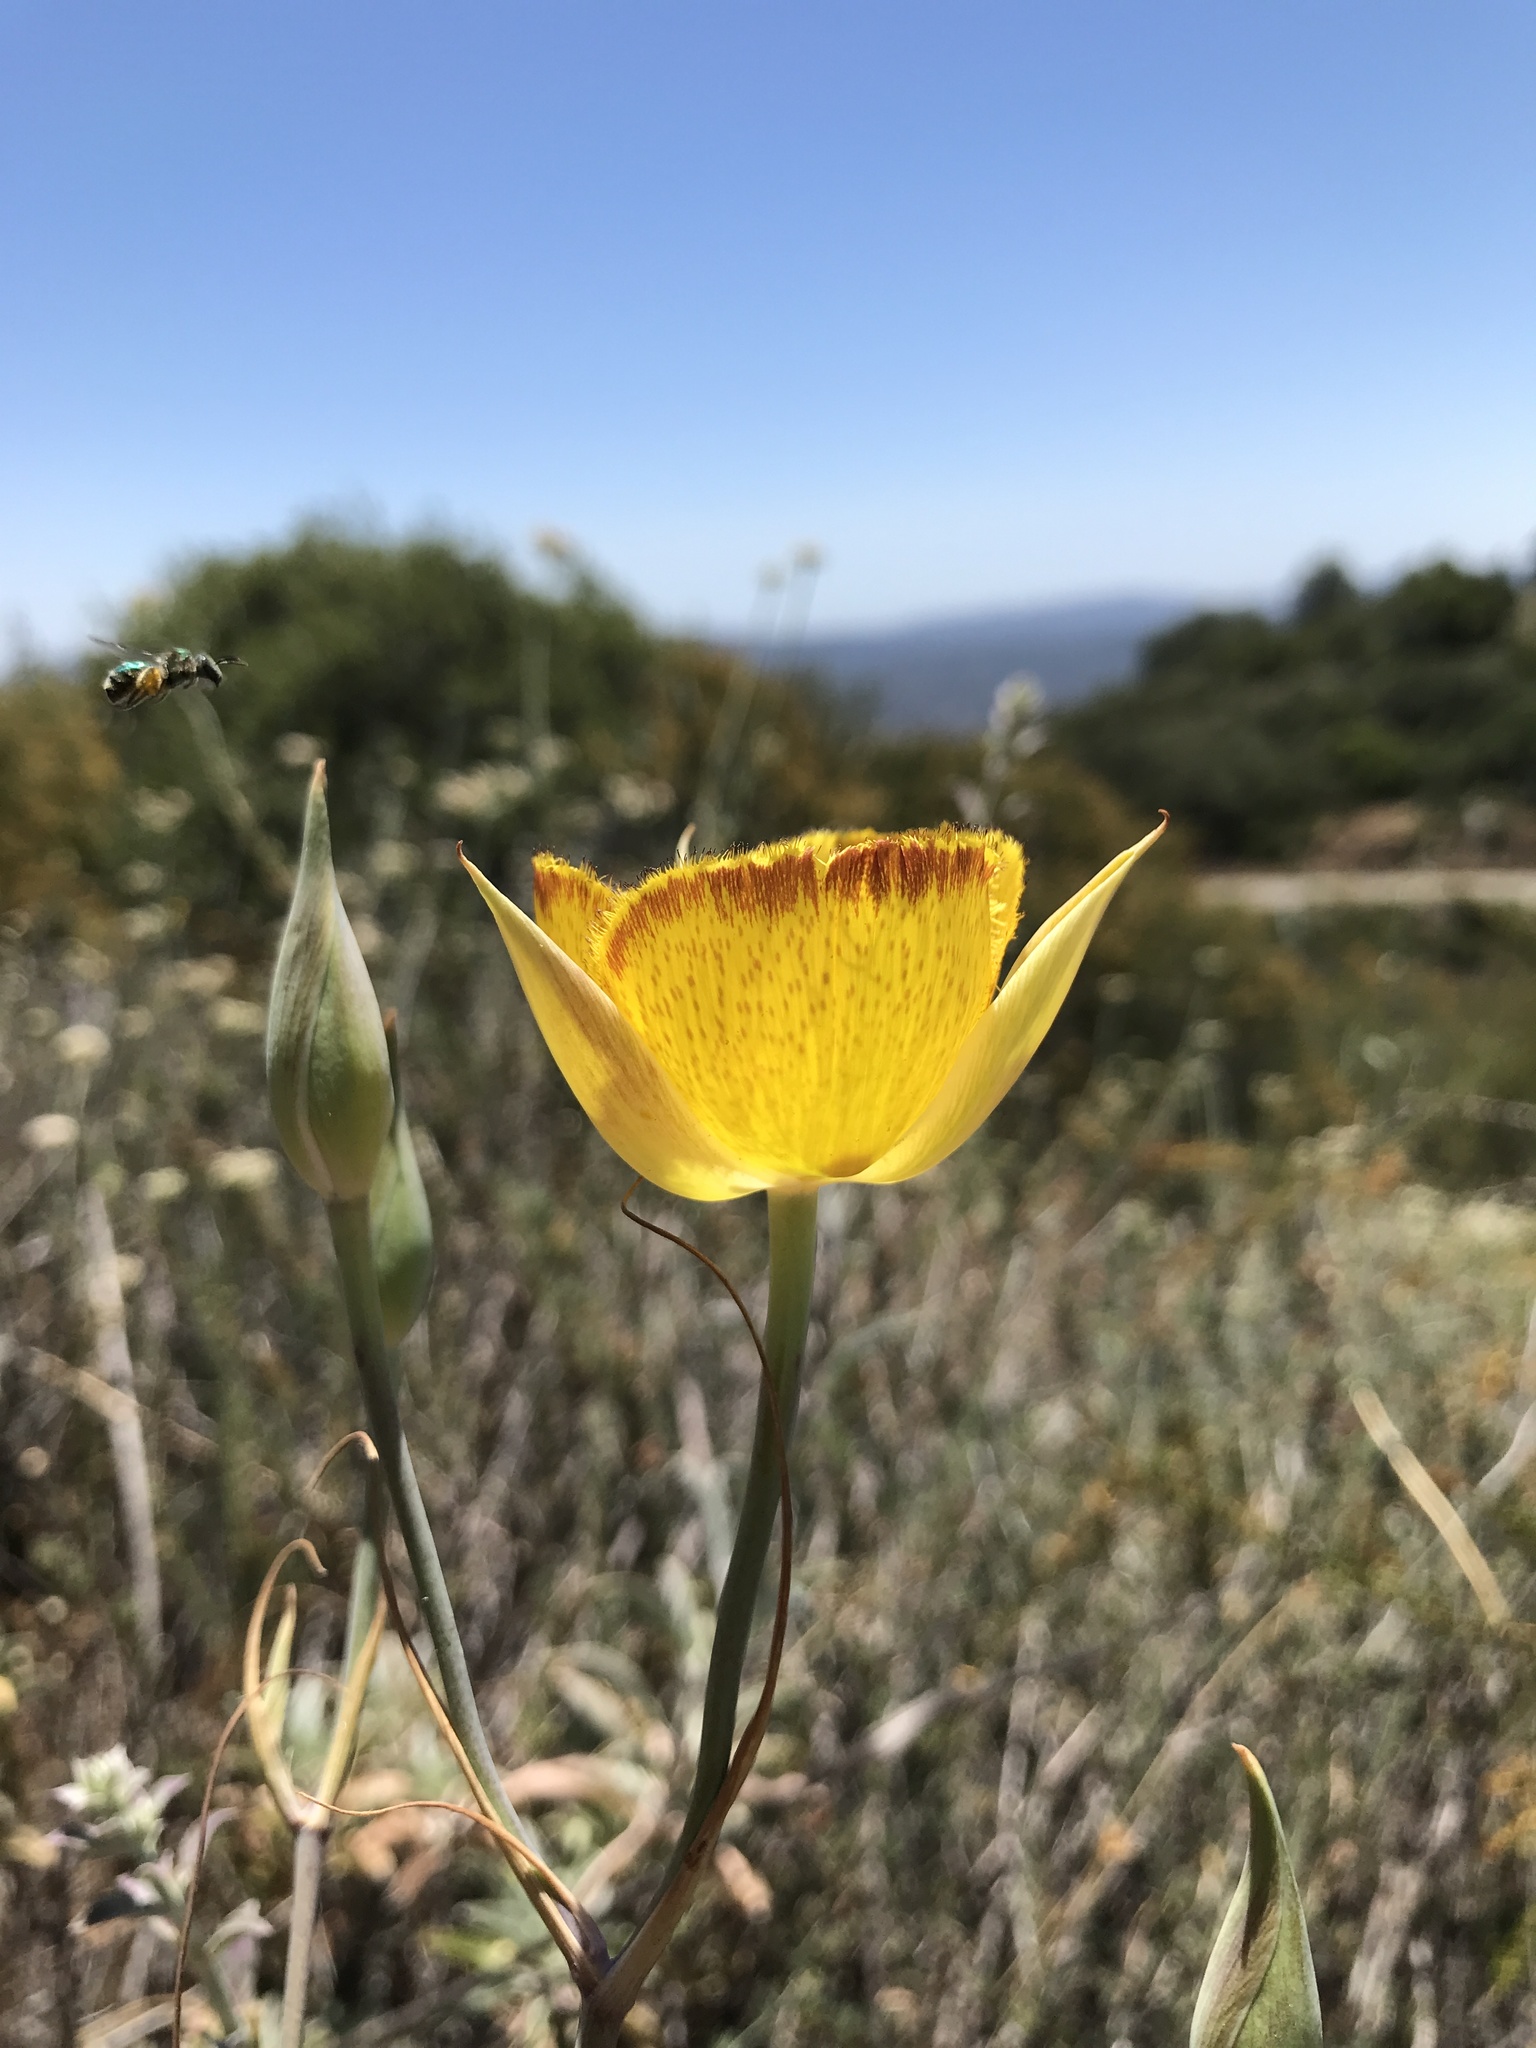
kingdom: Plantae
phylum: Tracheophyta
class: Liliopsida
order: Liliales
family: Liliaceae
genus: Calochortus
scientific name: Calochortus weedii
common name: Weed's mariposa-lily
